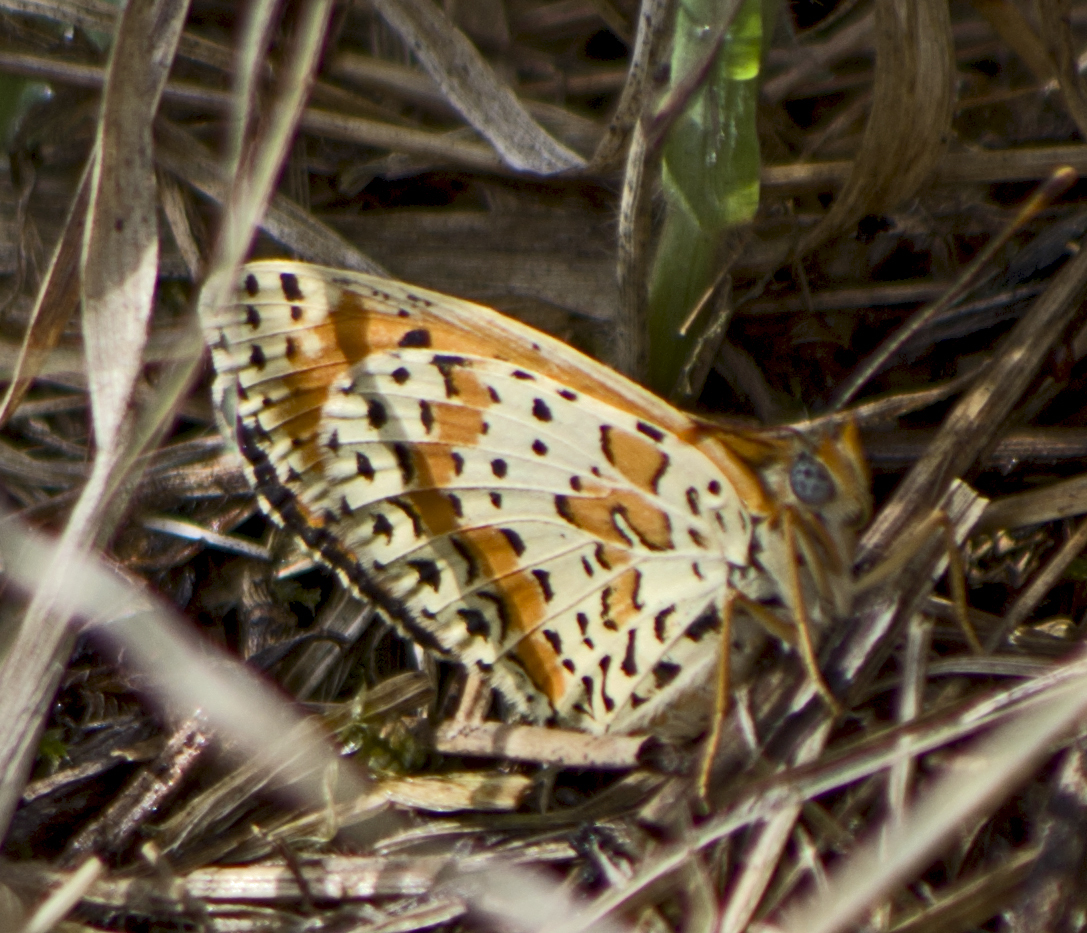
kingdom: Animalia
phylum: Arthropoda
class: Insecta
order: Lepidoptera
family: Nymphalidae
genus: Melitaea
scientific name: Melitaea didyma
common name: Spotted fritillary
